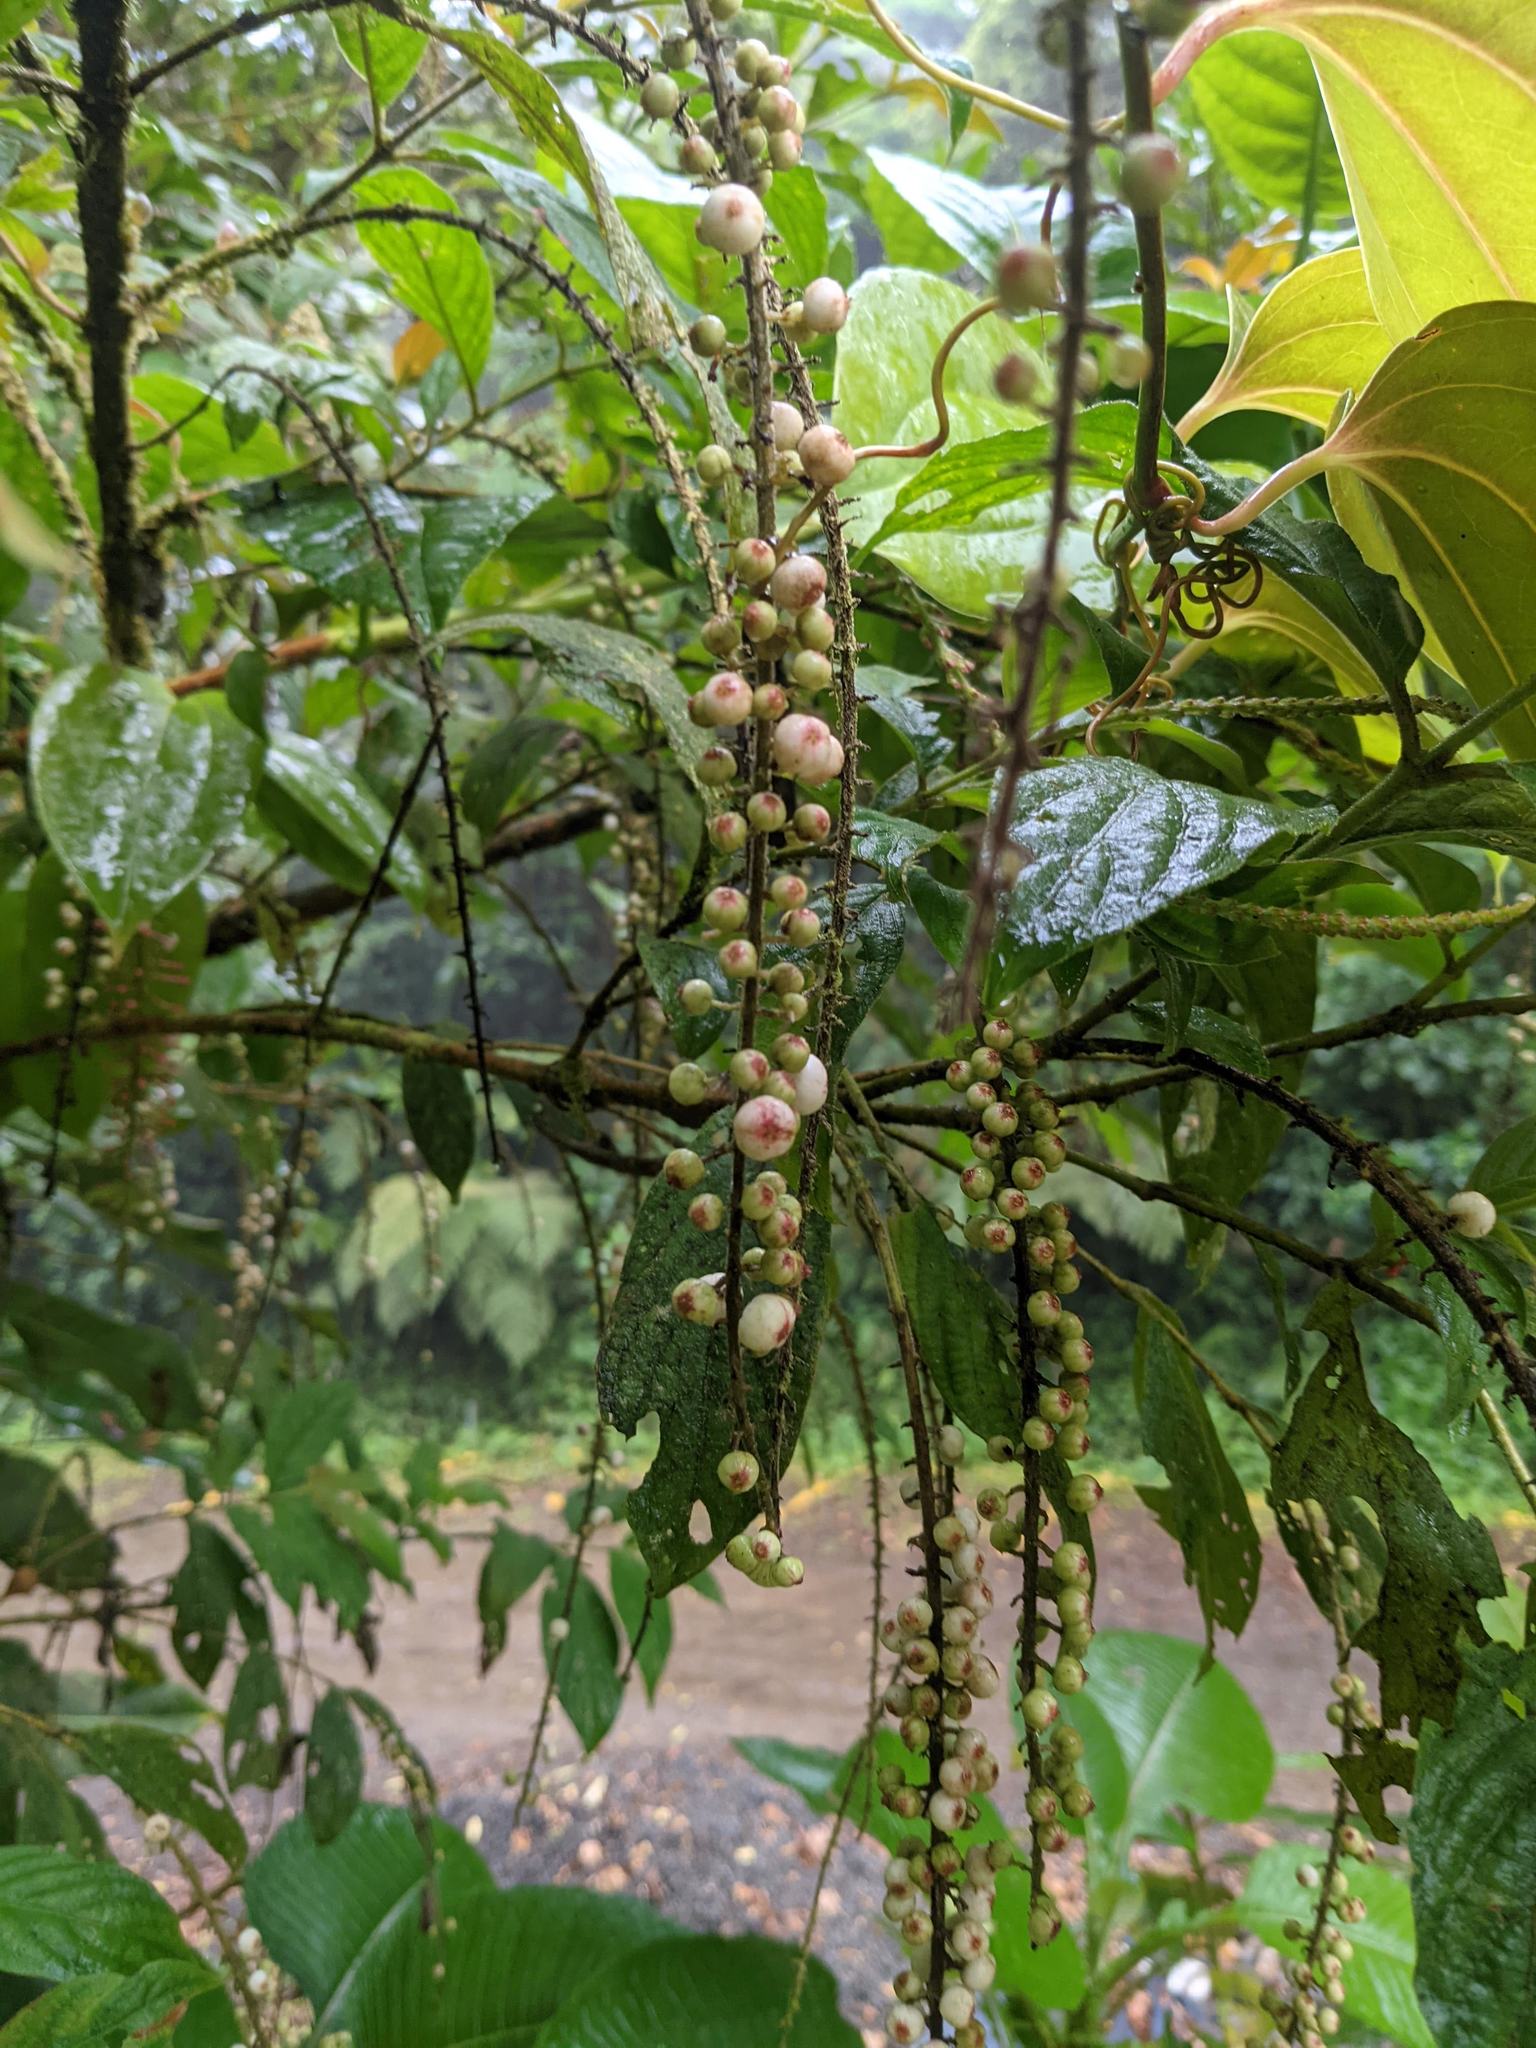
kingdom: Plantae
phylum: Tracheophyta
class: Magnoliopsida
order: Gentianales
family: Rubiaceae
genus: Gonzalagunia
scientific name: Gonzalagunia rosea
